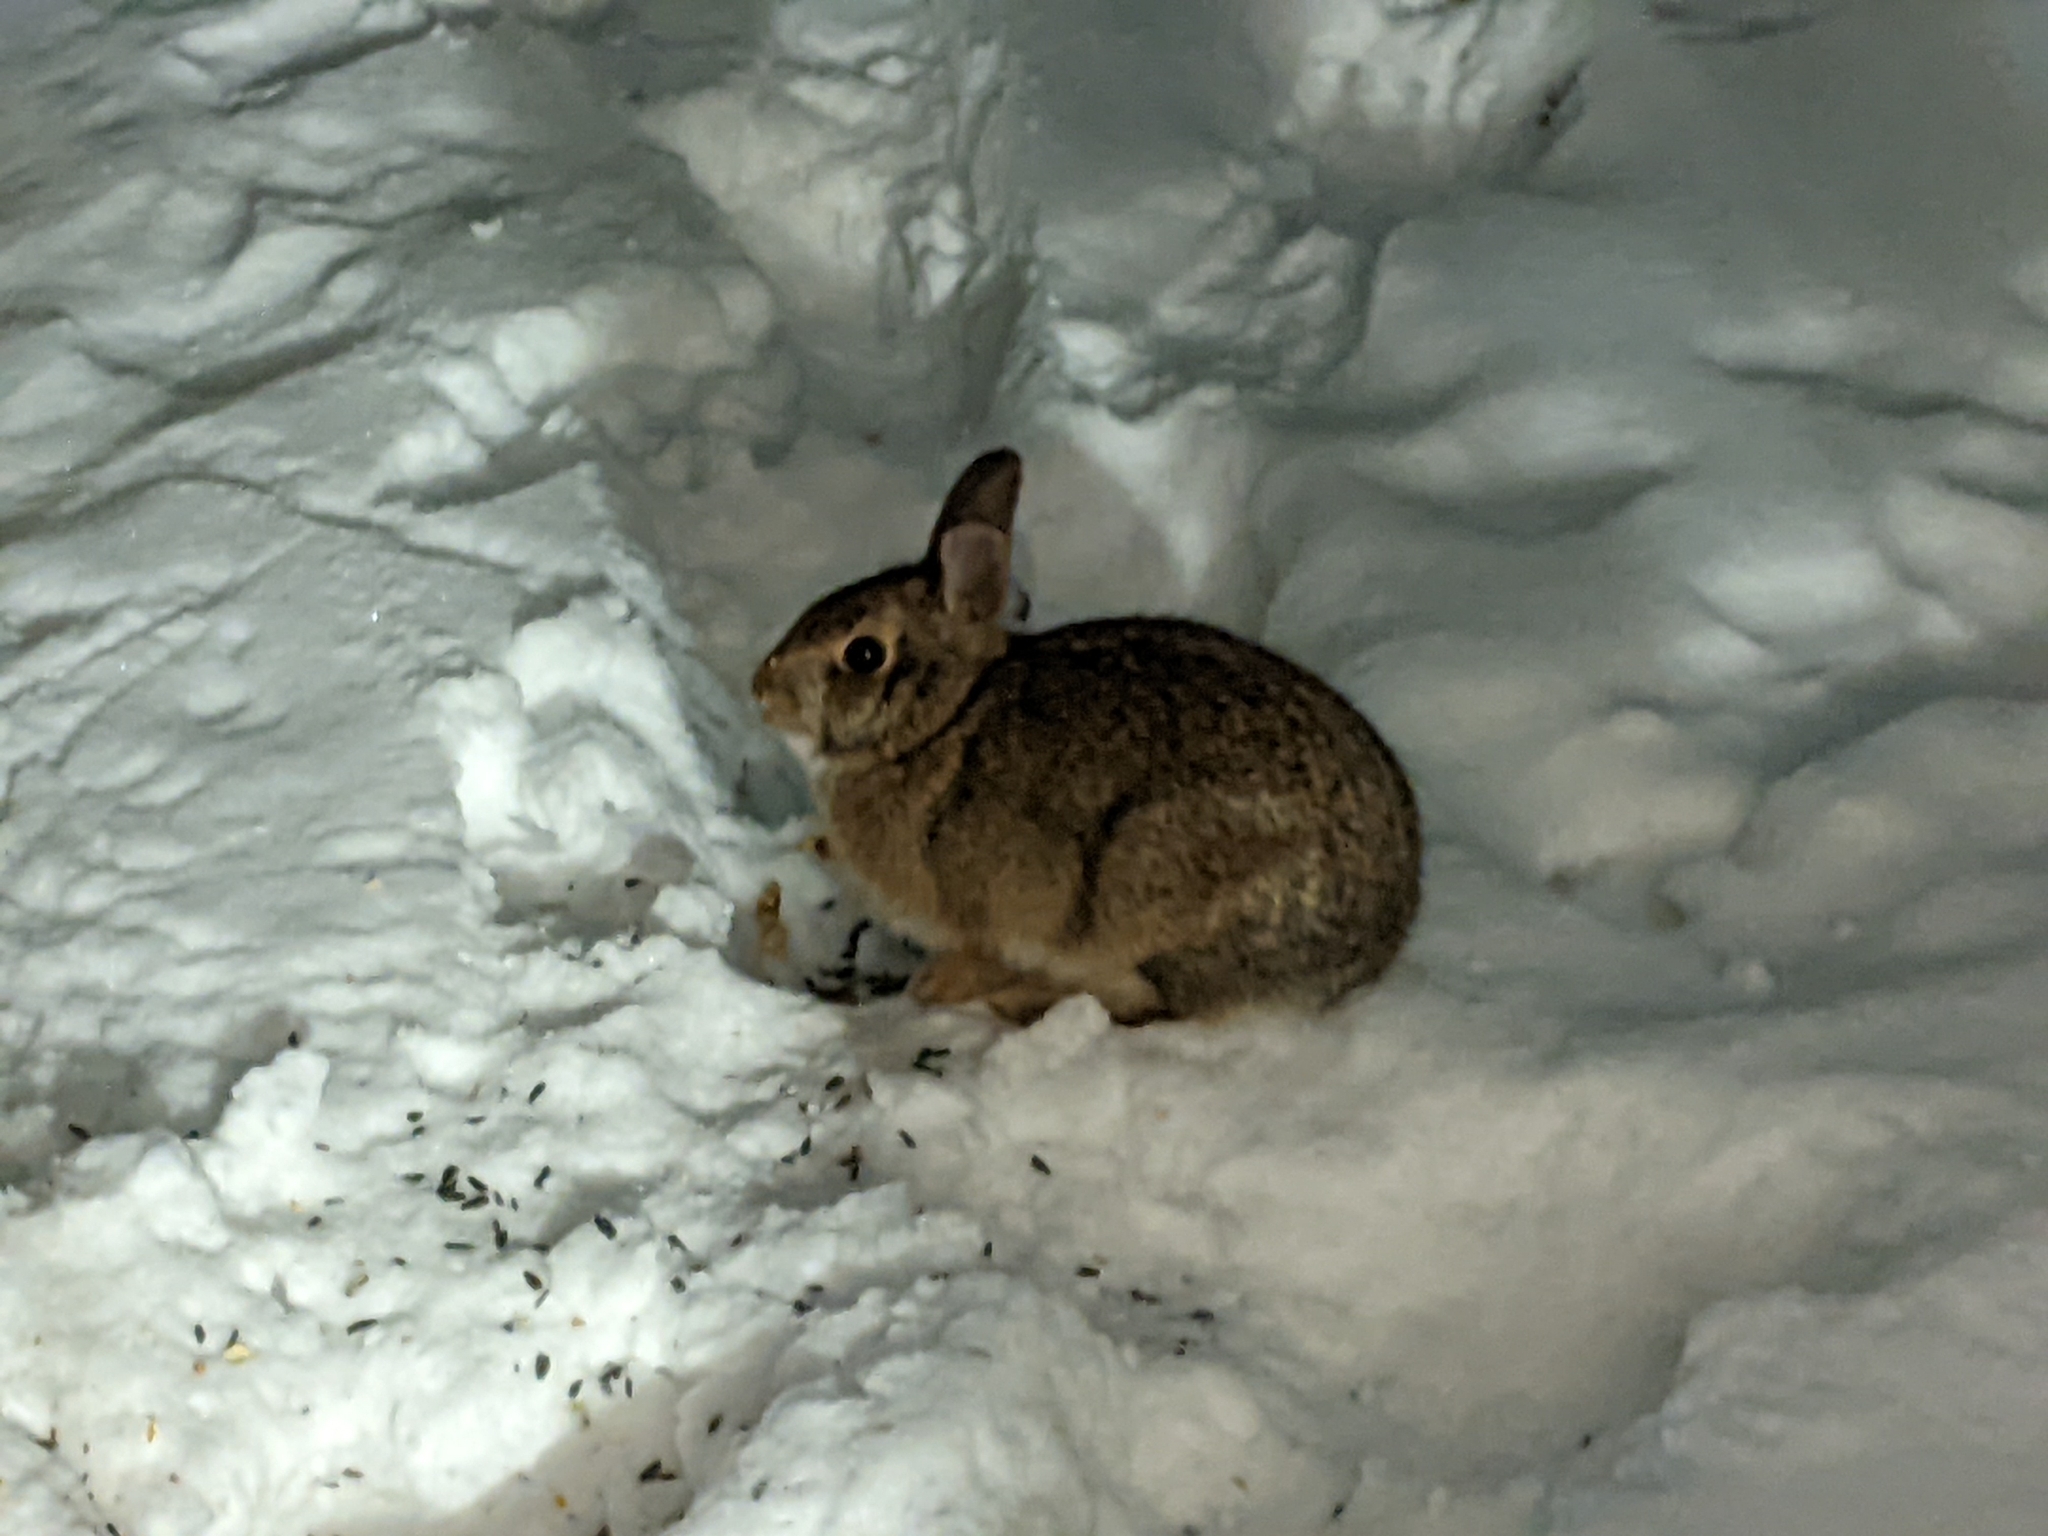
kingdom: Animalia
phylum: Chordata
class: Mammalia
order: Lagomorpha
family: Leporidae
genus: Sylvilagus
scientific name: Sylvilagus floridanus
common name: Eastern cottontail
